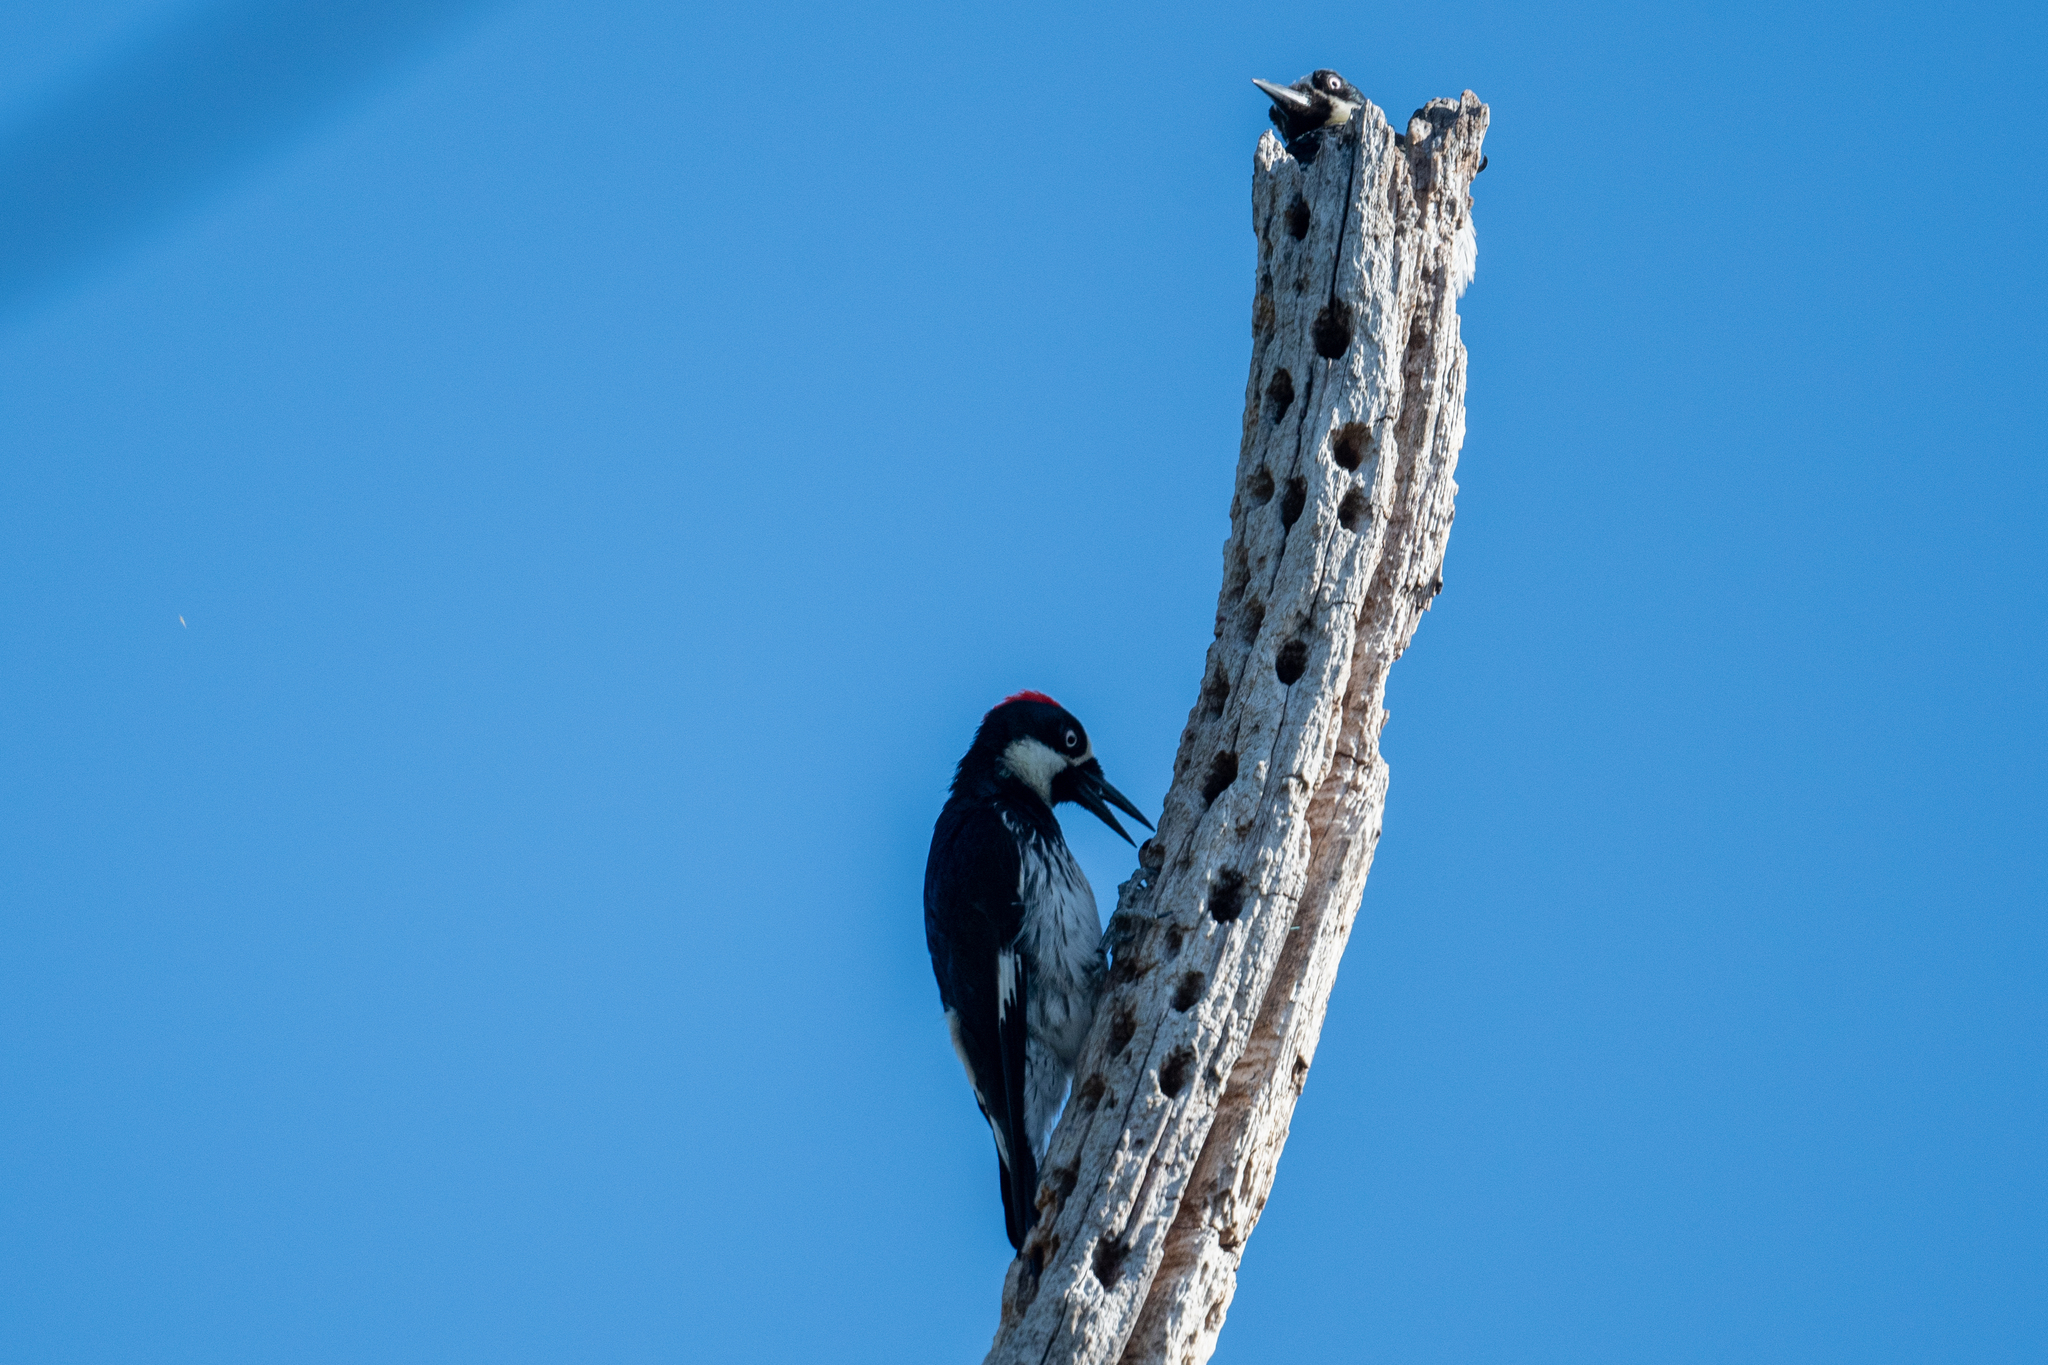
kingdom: Animalia
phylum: Chordata
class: Aves
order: Piciformes
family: Picidae
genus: Melanerpes
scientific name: Melanerpes formicivorus
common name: Acorn woodpecker
